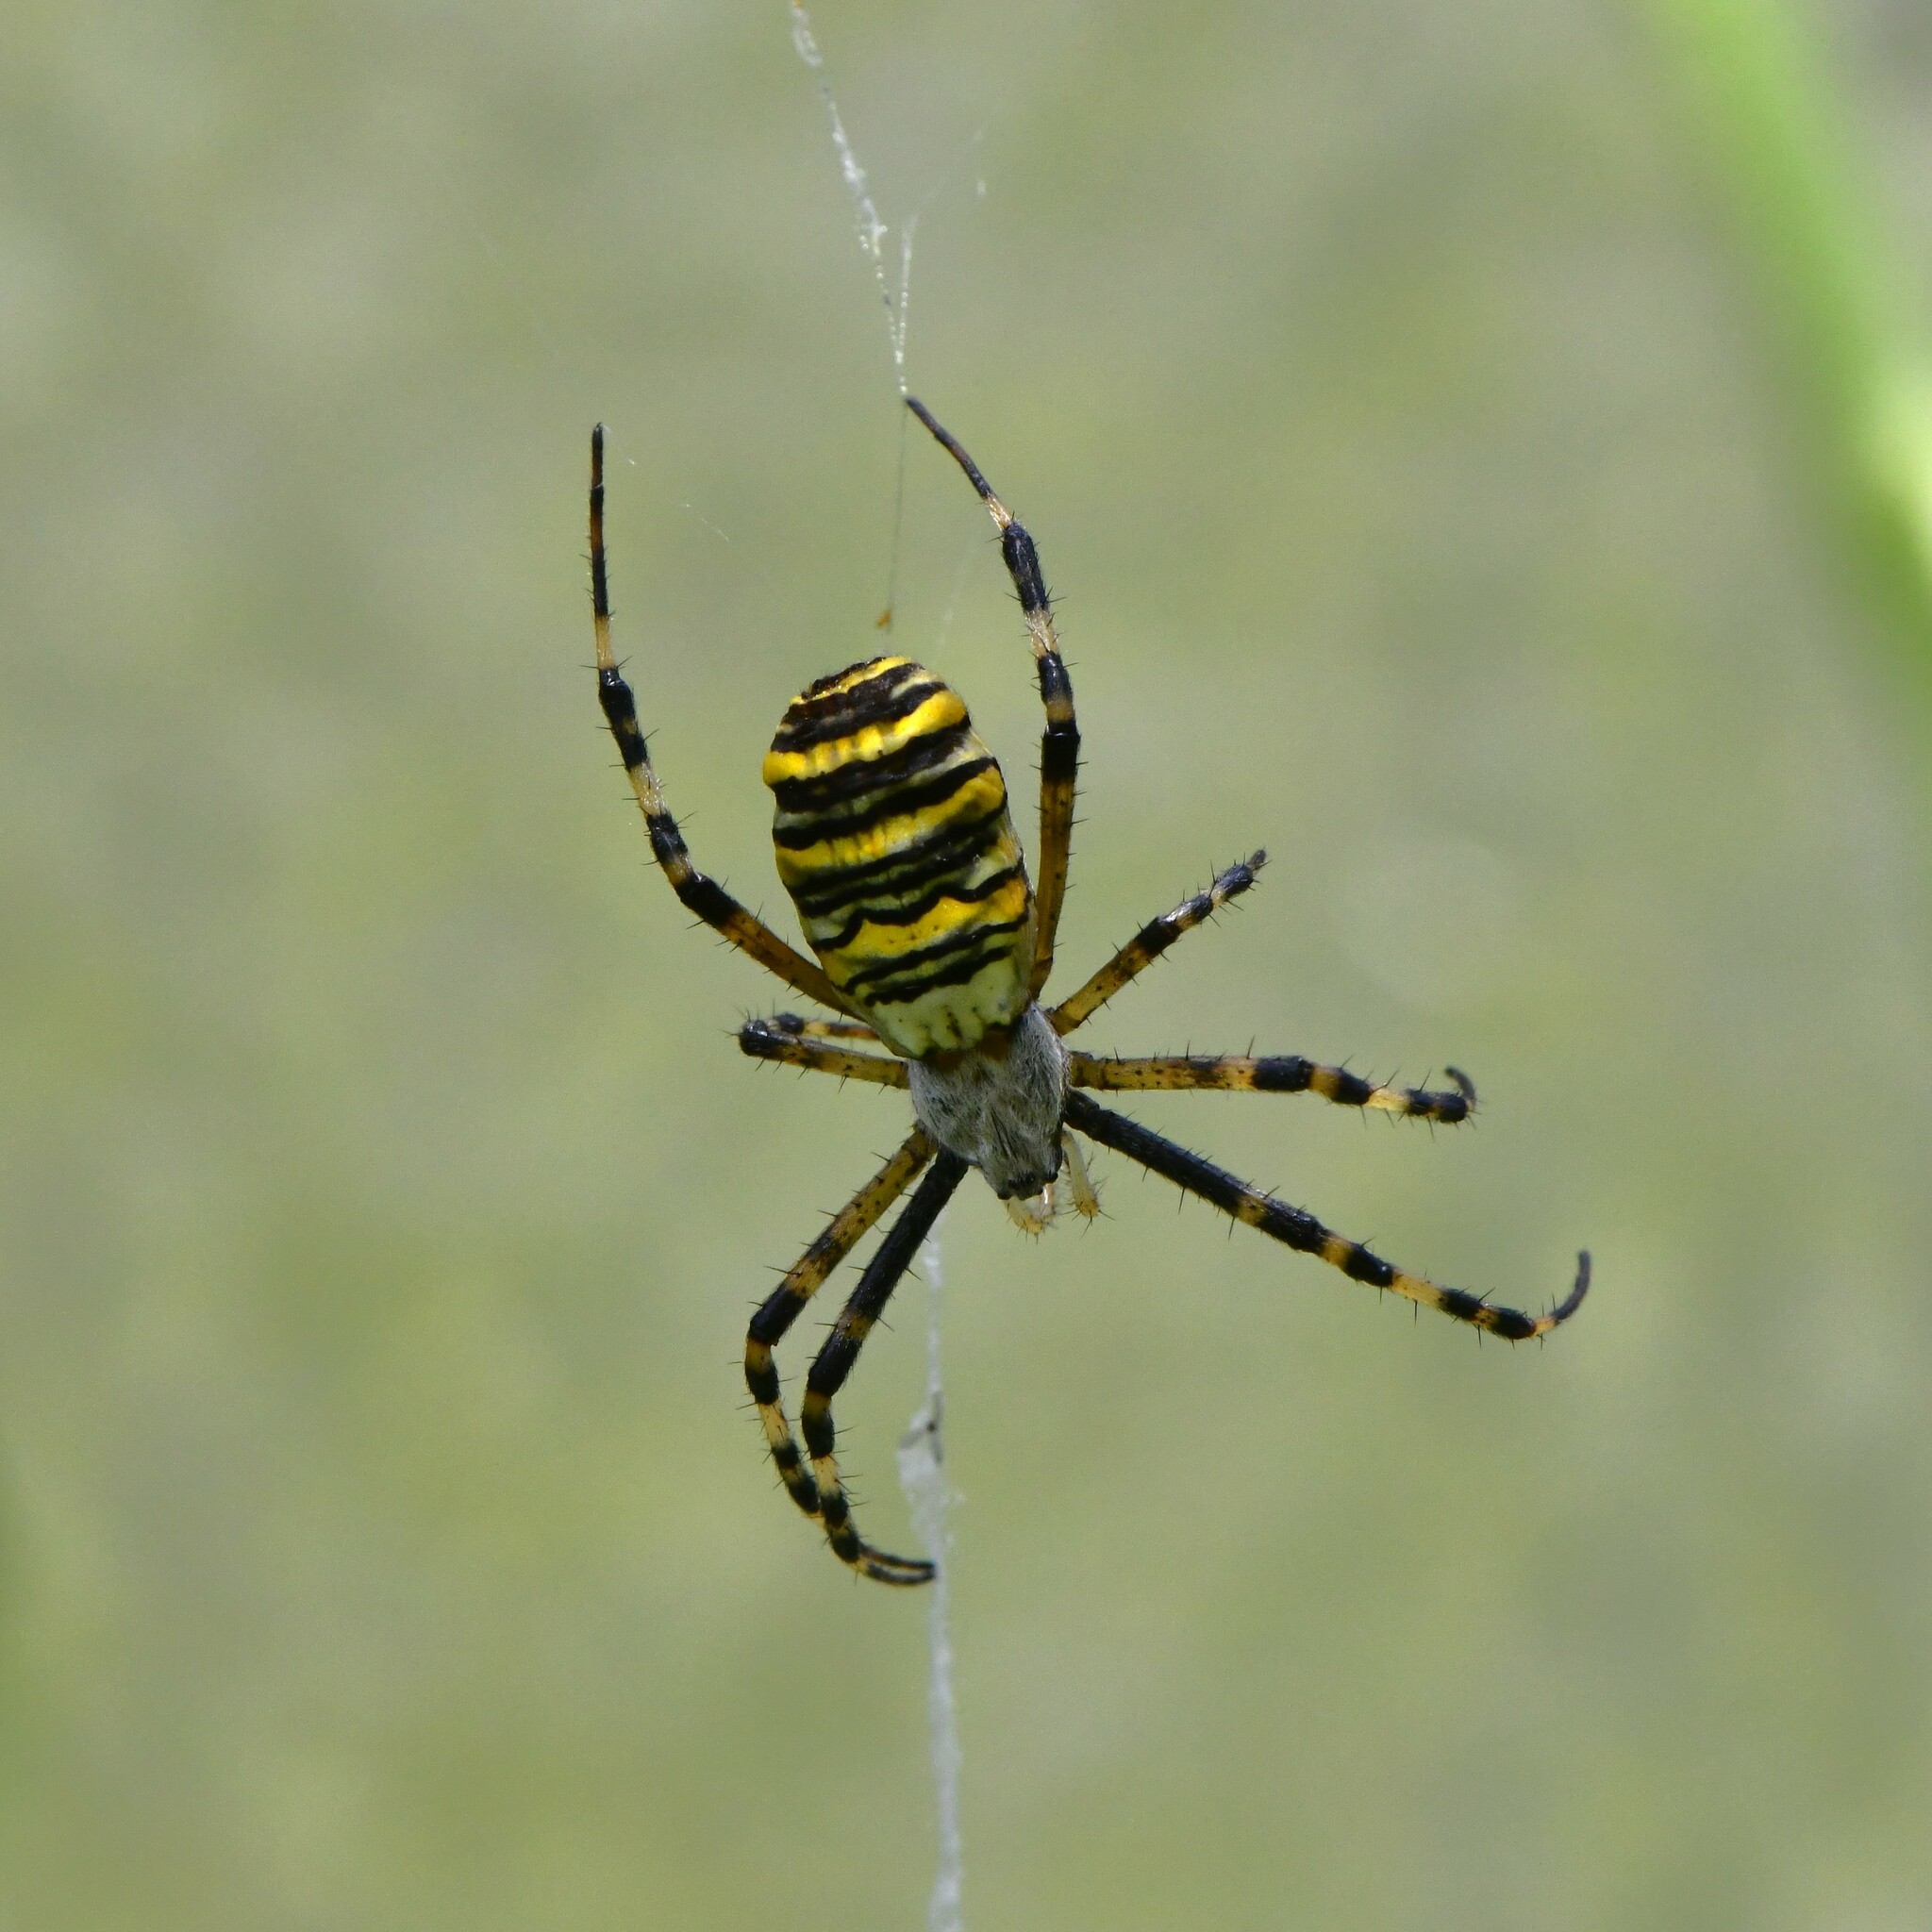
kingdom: Animalia
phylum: Arthropoda
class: Arachnida
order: Araneae
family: Araneidae
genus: Argiope
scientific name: Argiope bruennichi
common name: Wasp spider
